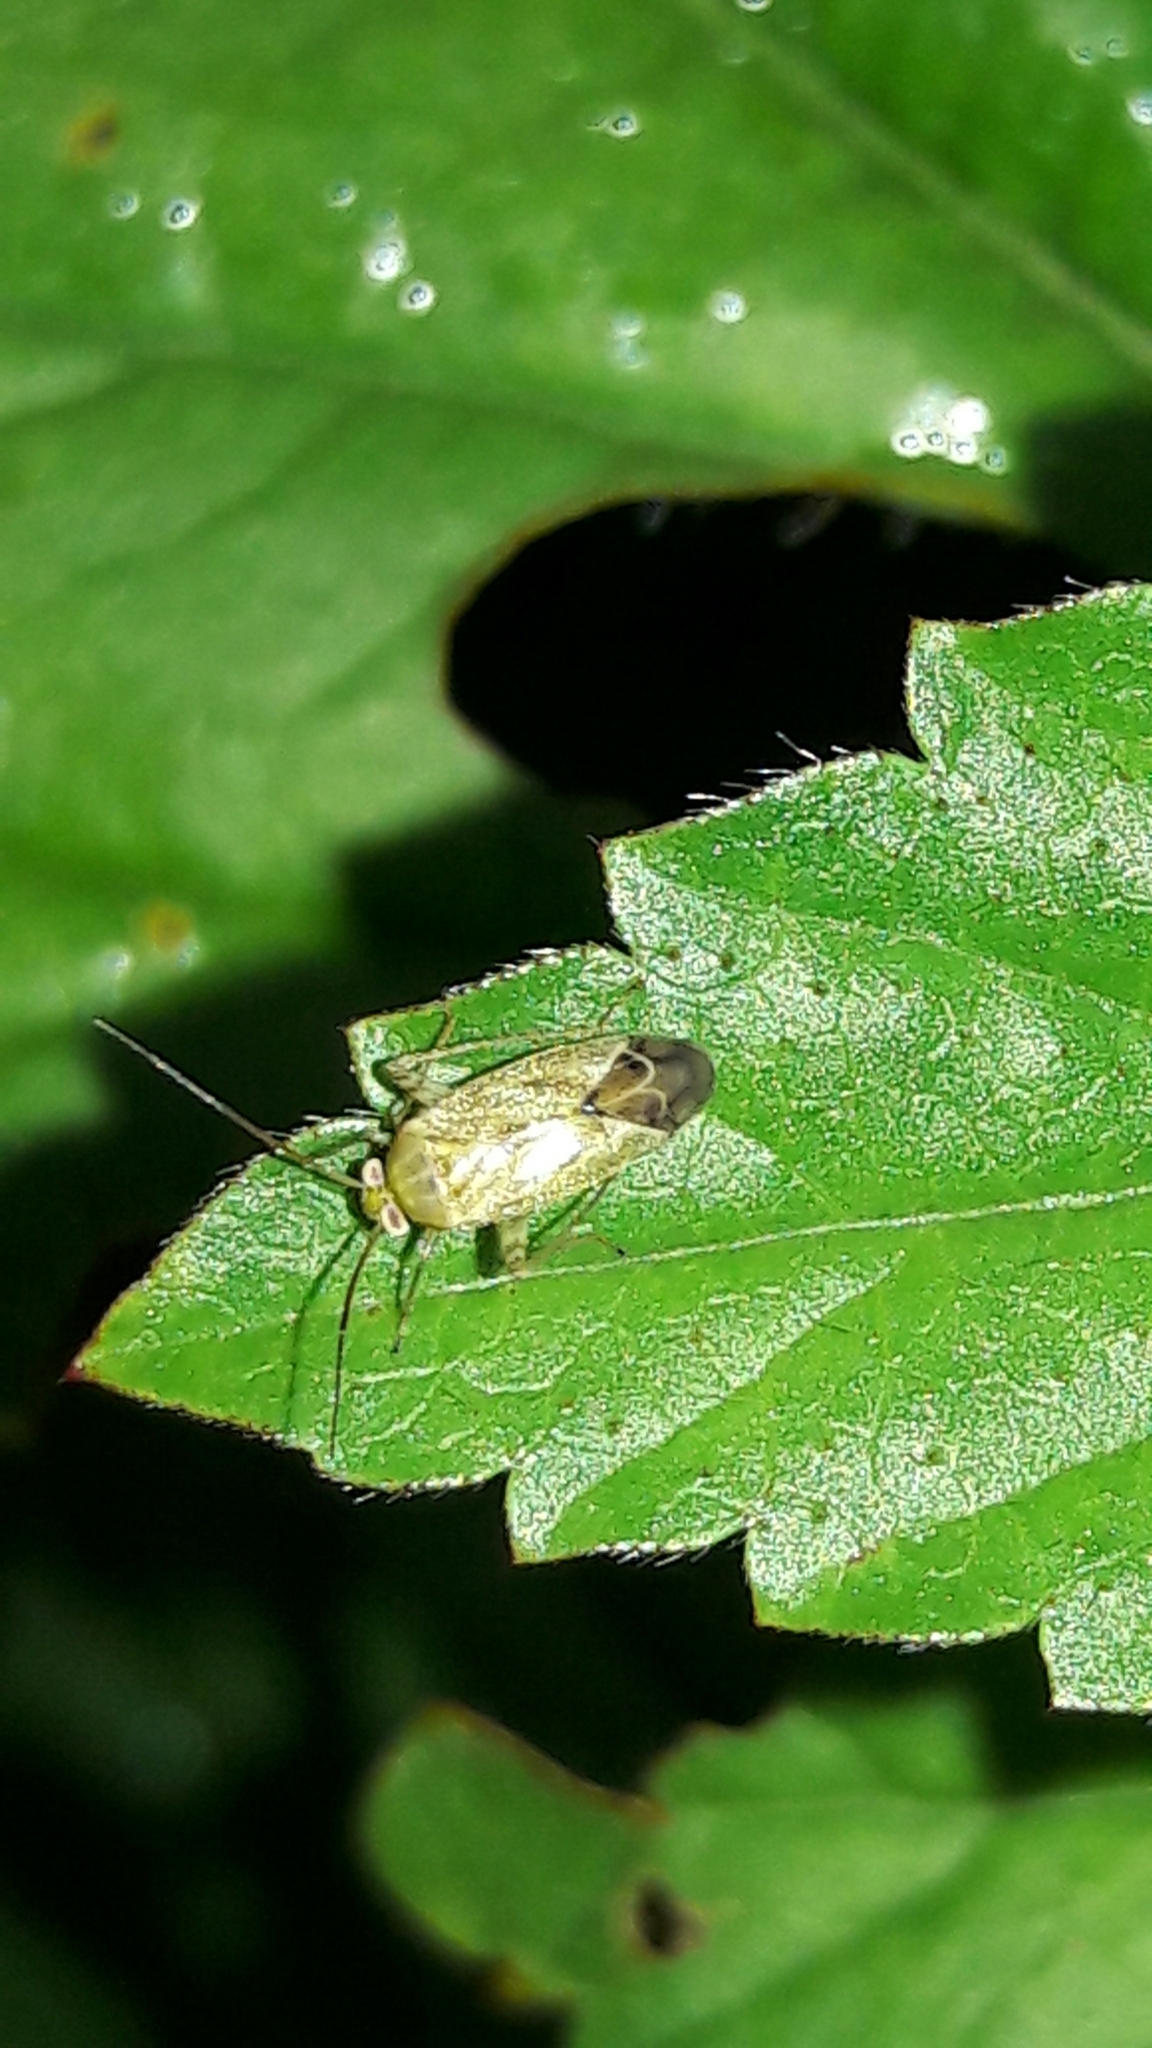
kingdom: Animalia
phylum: Arthropoda
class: Insecta
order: Hemiptera
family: Miridae
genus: Taylorilygus
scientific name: Taylorilygus apicalis
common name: Plant bug
